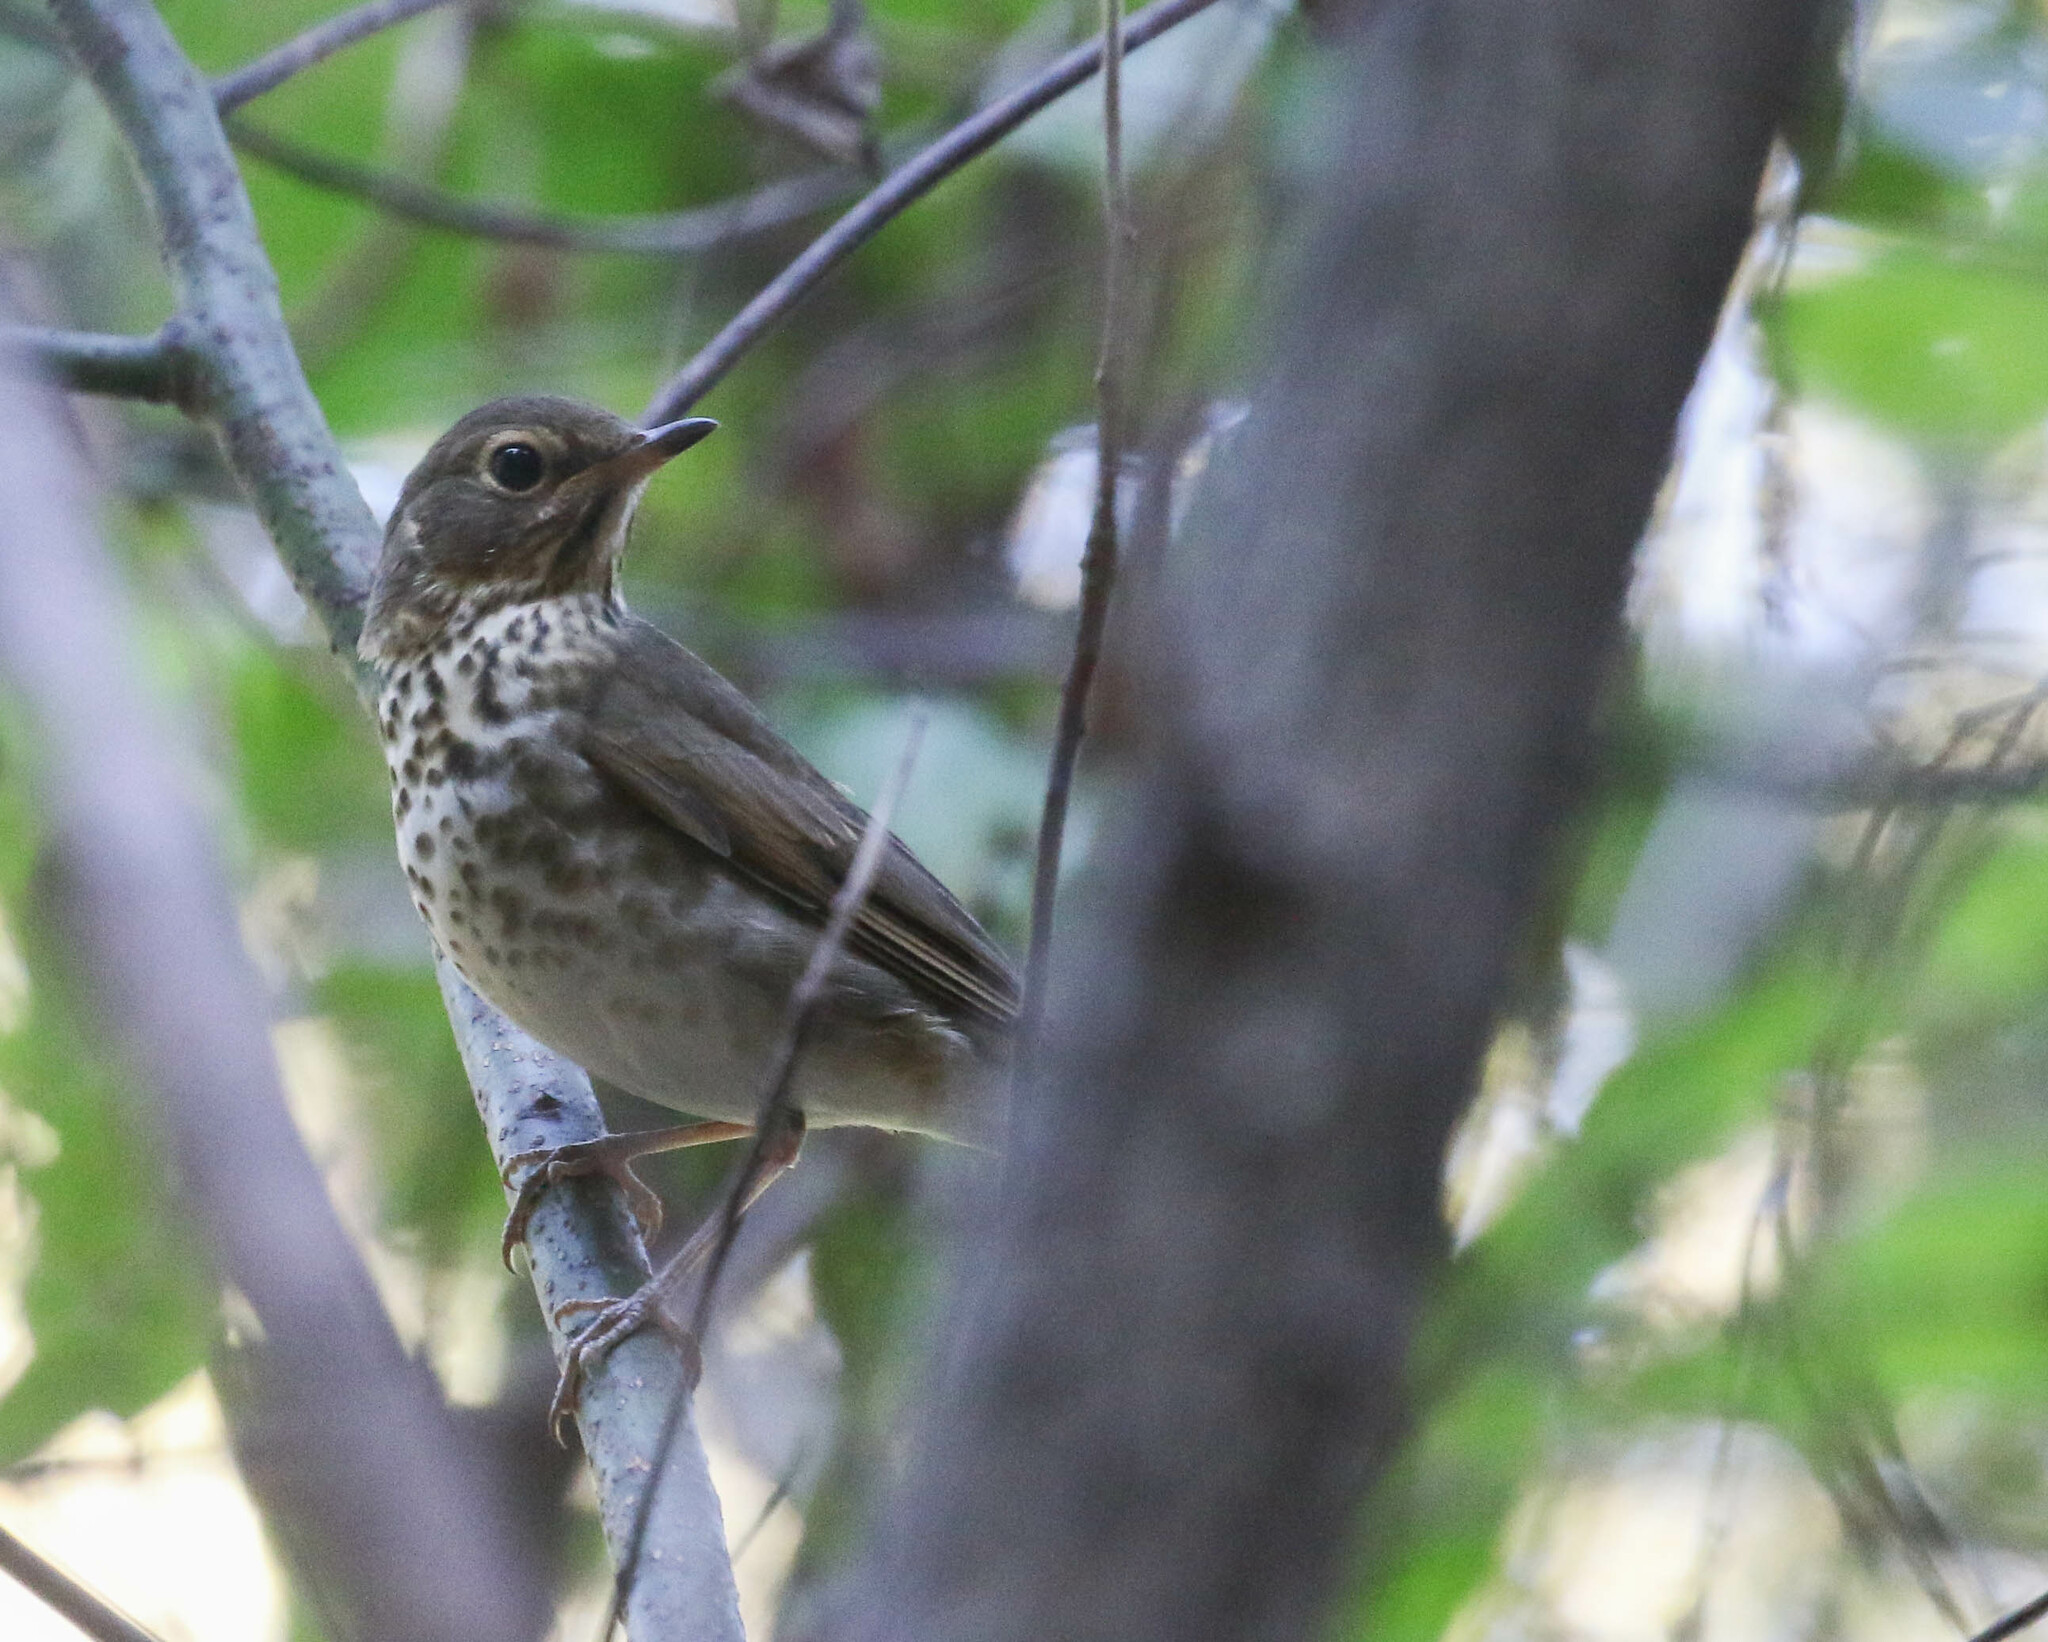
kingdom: Animalia
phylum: Chordata
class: Aves
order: Passeriformes
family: Turdidae
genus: Catharus
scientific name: Catharus ustulatus
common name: Swainson's thrush
